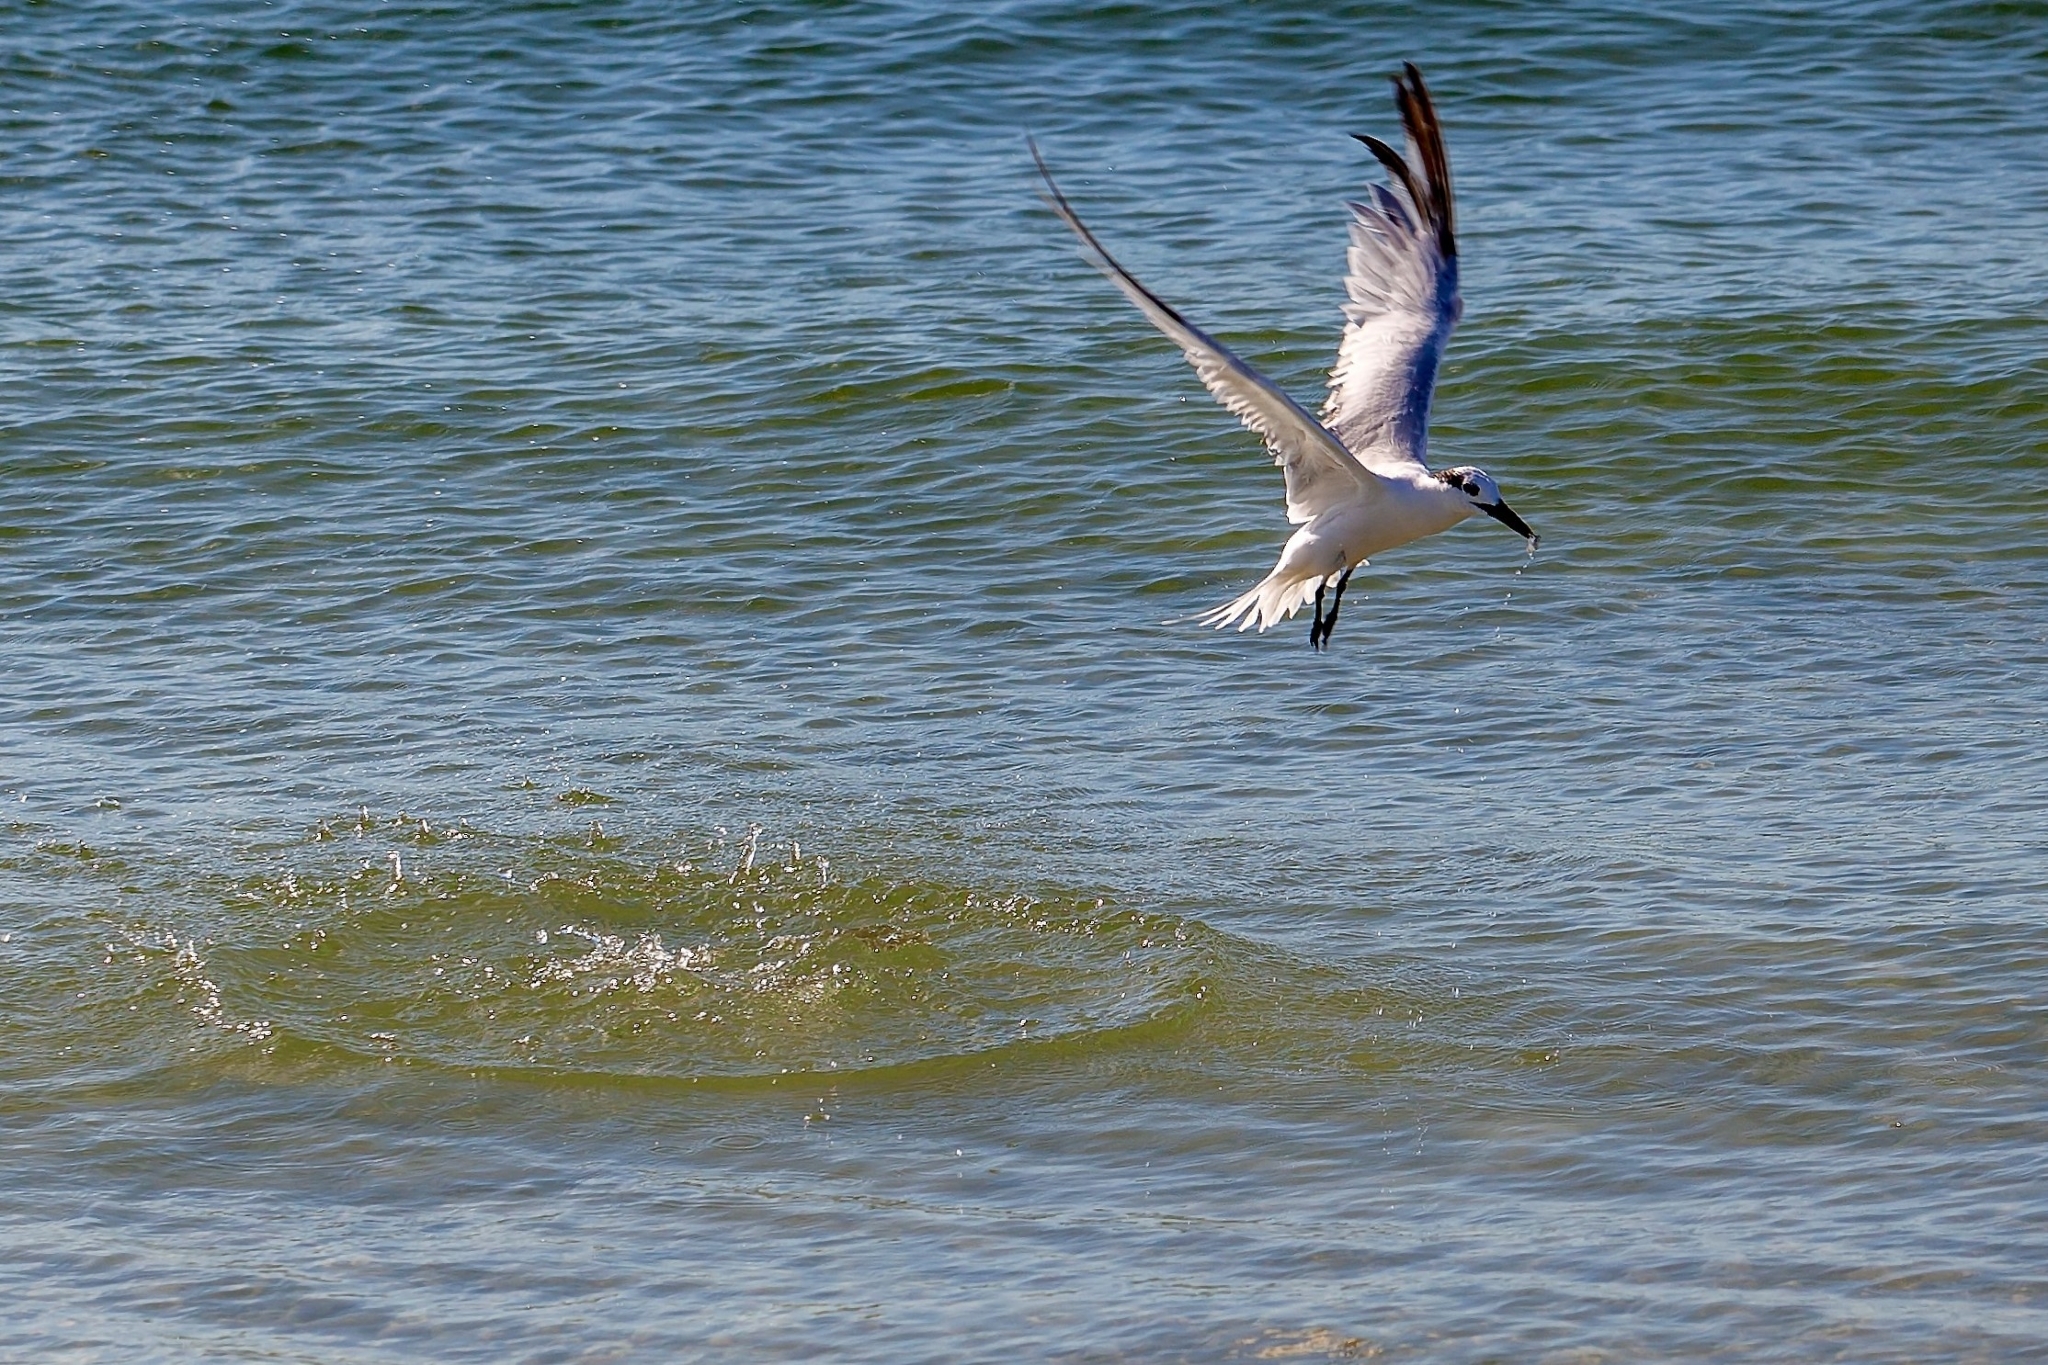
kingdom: Animalia
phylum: Chordata
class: Aves
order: Charadriiformes
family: Laridae
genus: Thalasseus
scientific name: Thalasseus sandvicensis
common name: Sandwich tern
